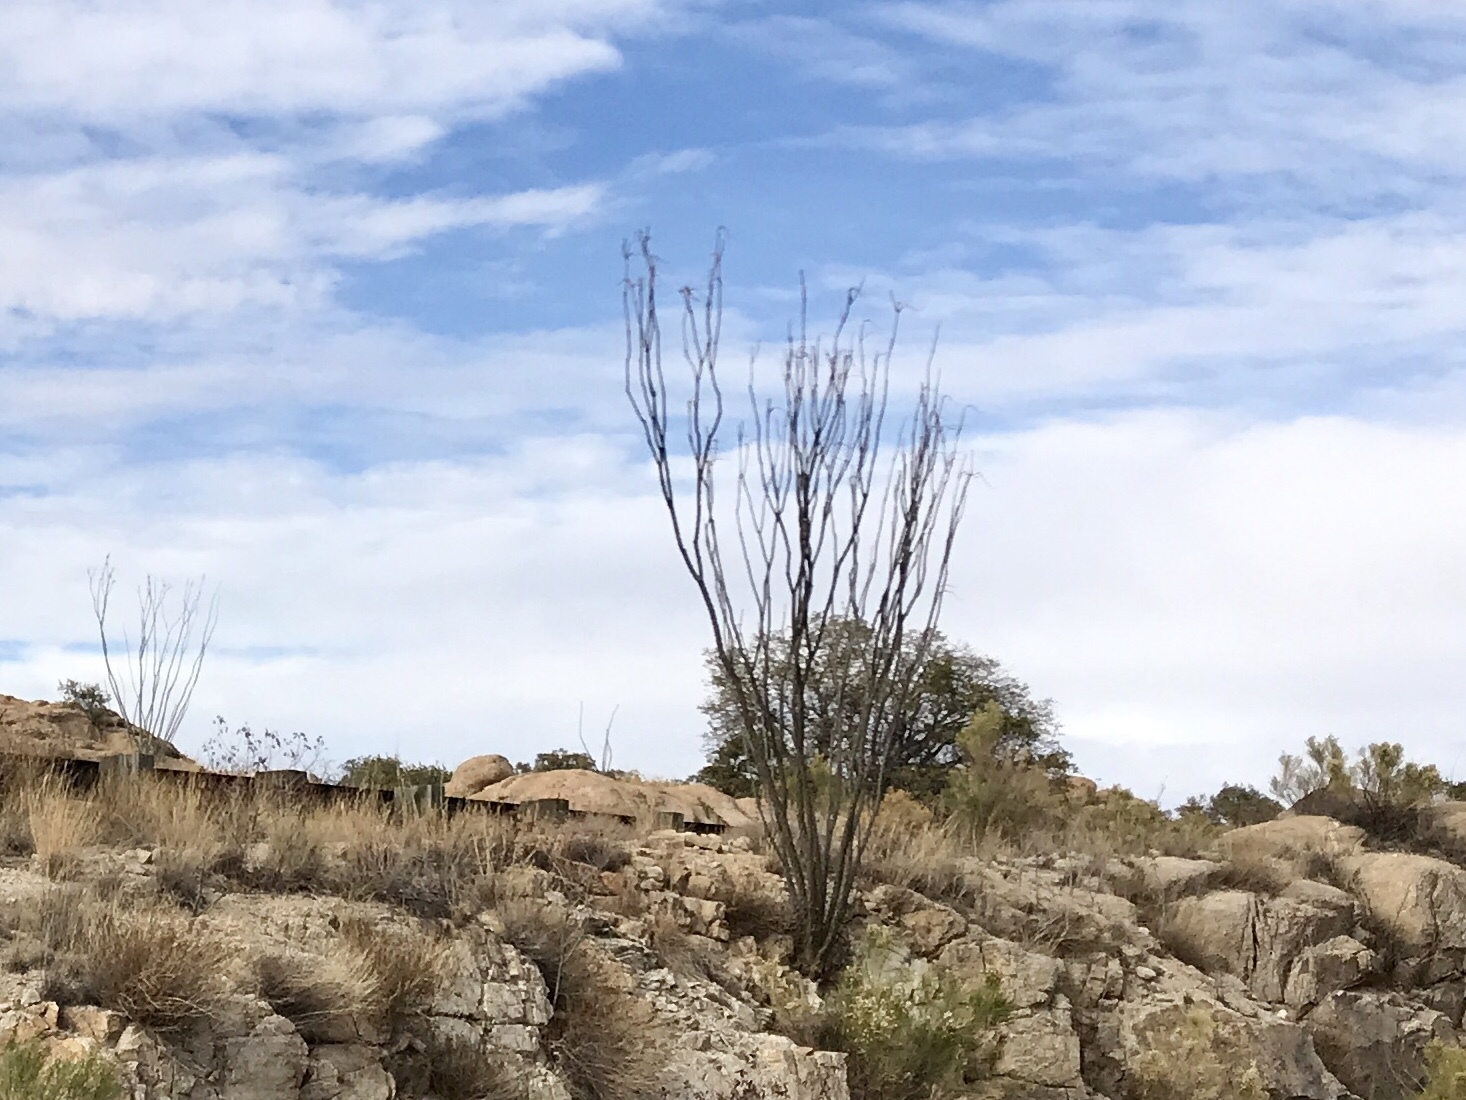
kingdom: Plantae
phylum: Tracheophyta
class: Magnoliopsida
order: Ericales
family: Fouquieriaceae
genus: Fouquieria
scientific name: Fouquieria splendens
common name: Vine-cactus
